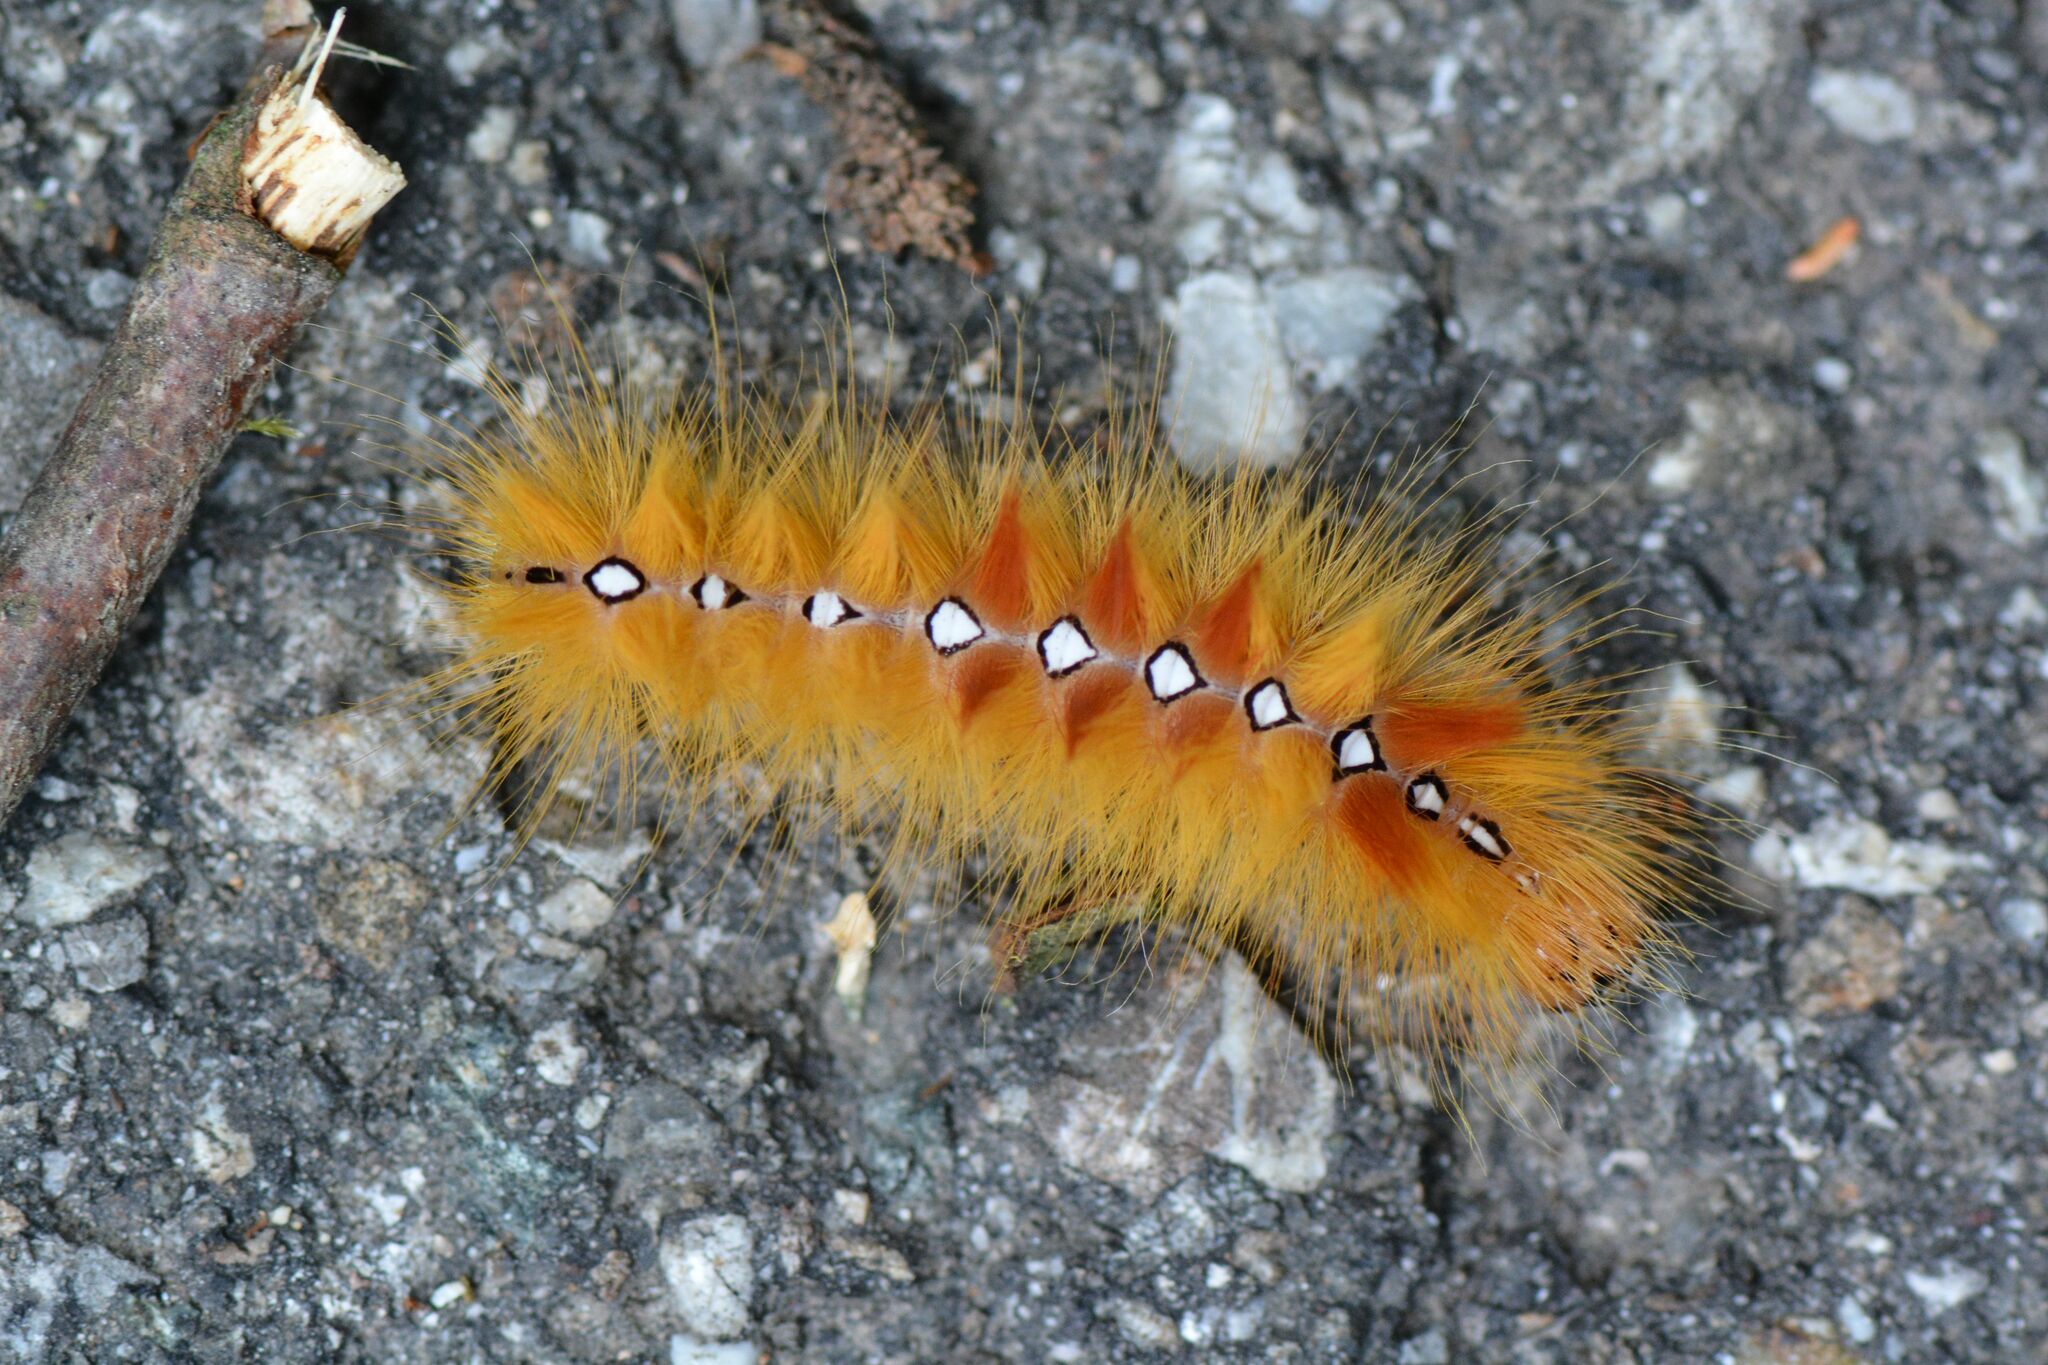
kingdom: Animalia
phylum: Arthropoda
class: Insecta
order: Lepidoptera
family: Noctuidae
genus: Acronicta
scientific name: Acronicta aceris
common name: Sycamore
